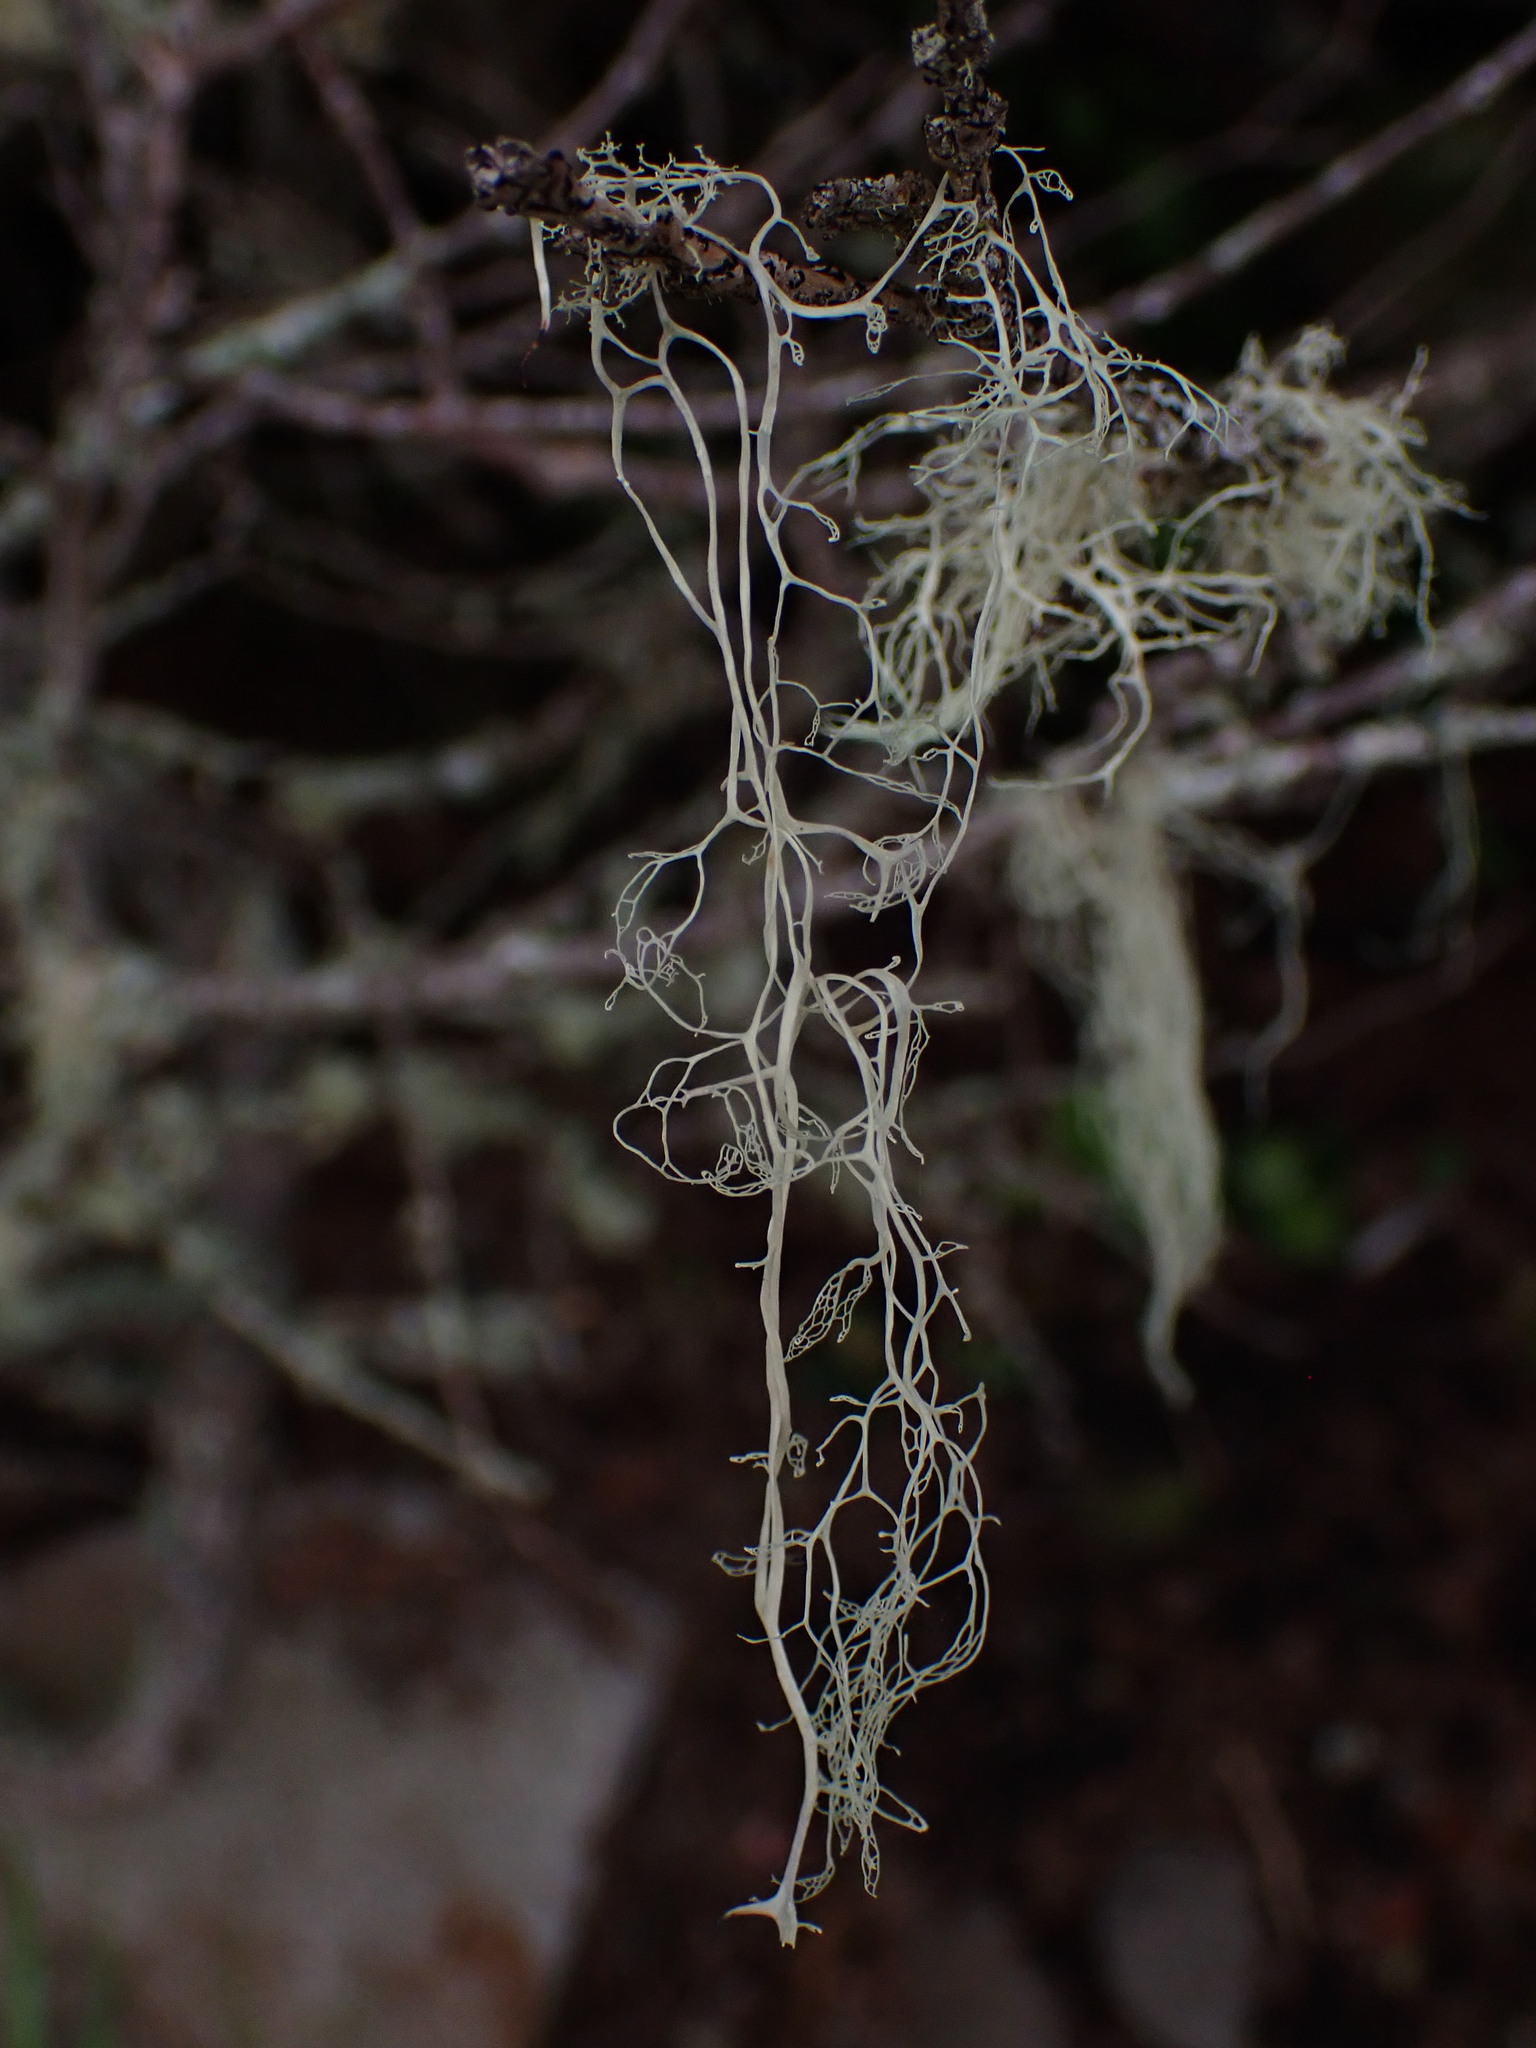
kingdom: Fungi
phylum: Ascomycota
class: Lecanoromycetes
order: Lecanorales
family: Ramalinaceae
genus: Ramalina
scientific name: Ramalina menziesii
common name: Lace lichen
